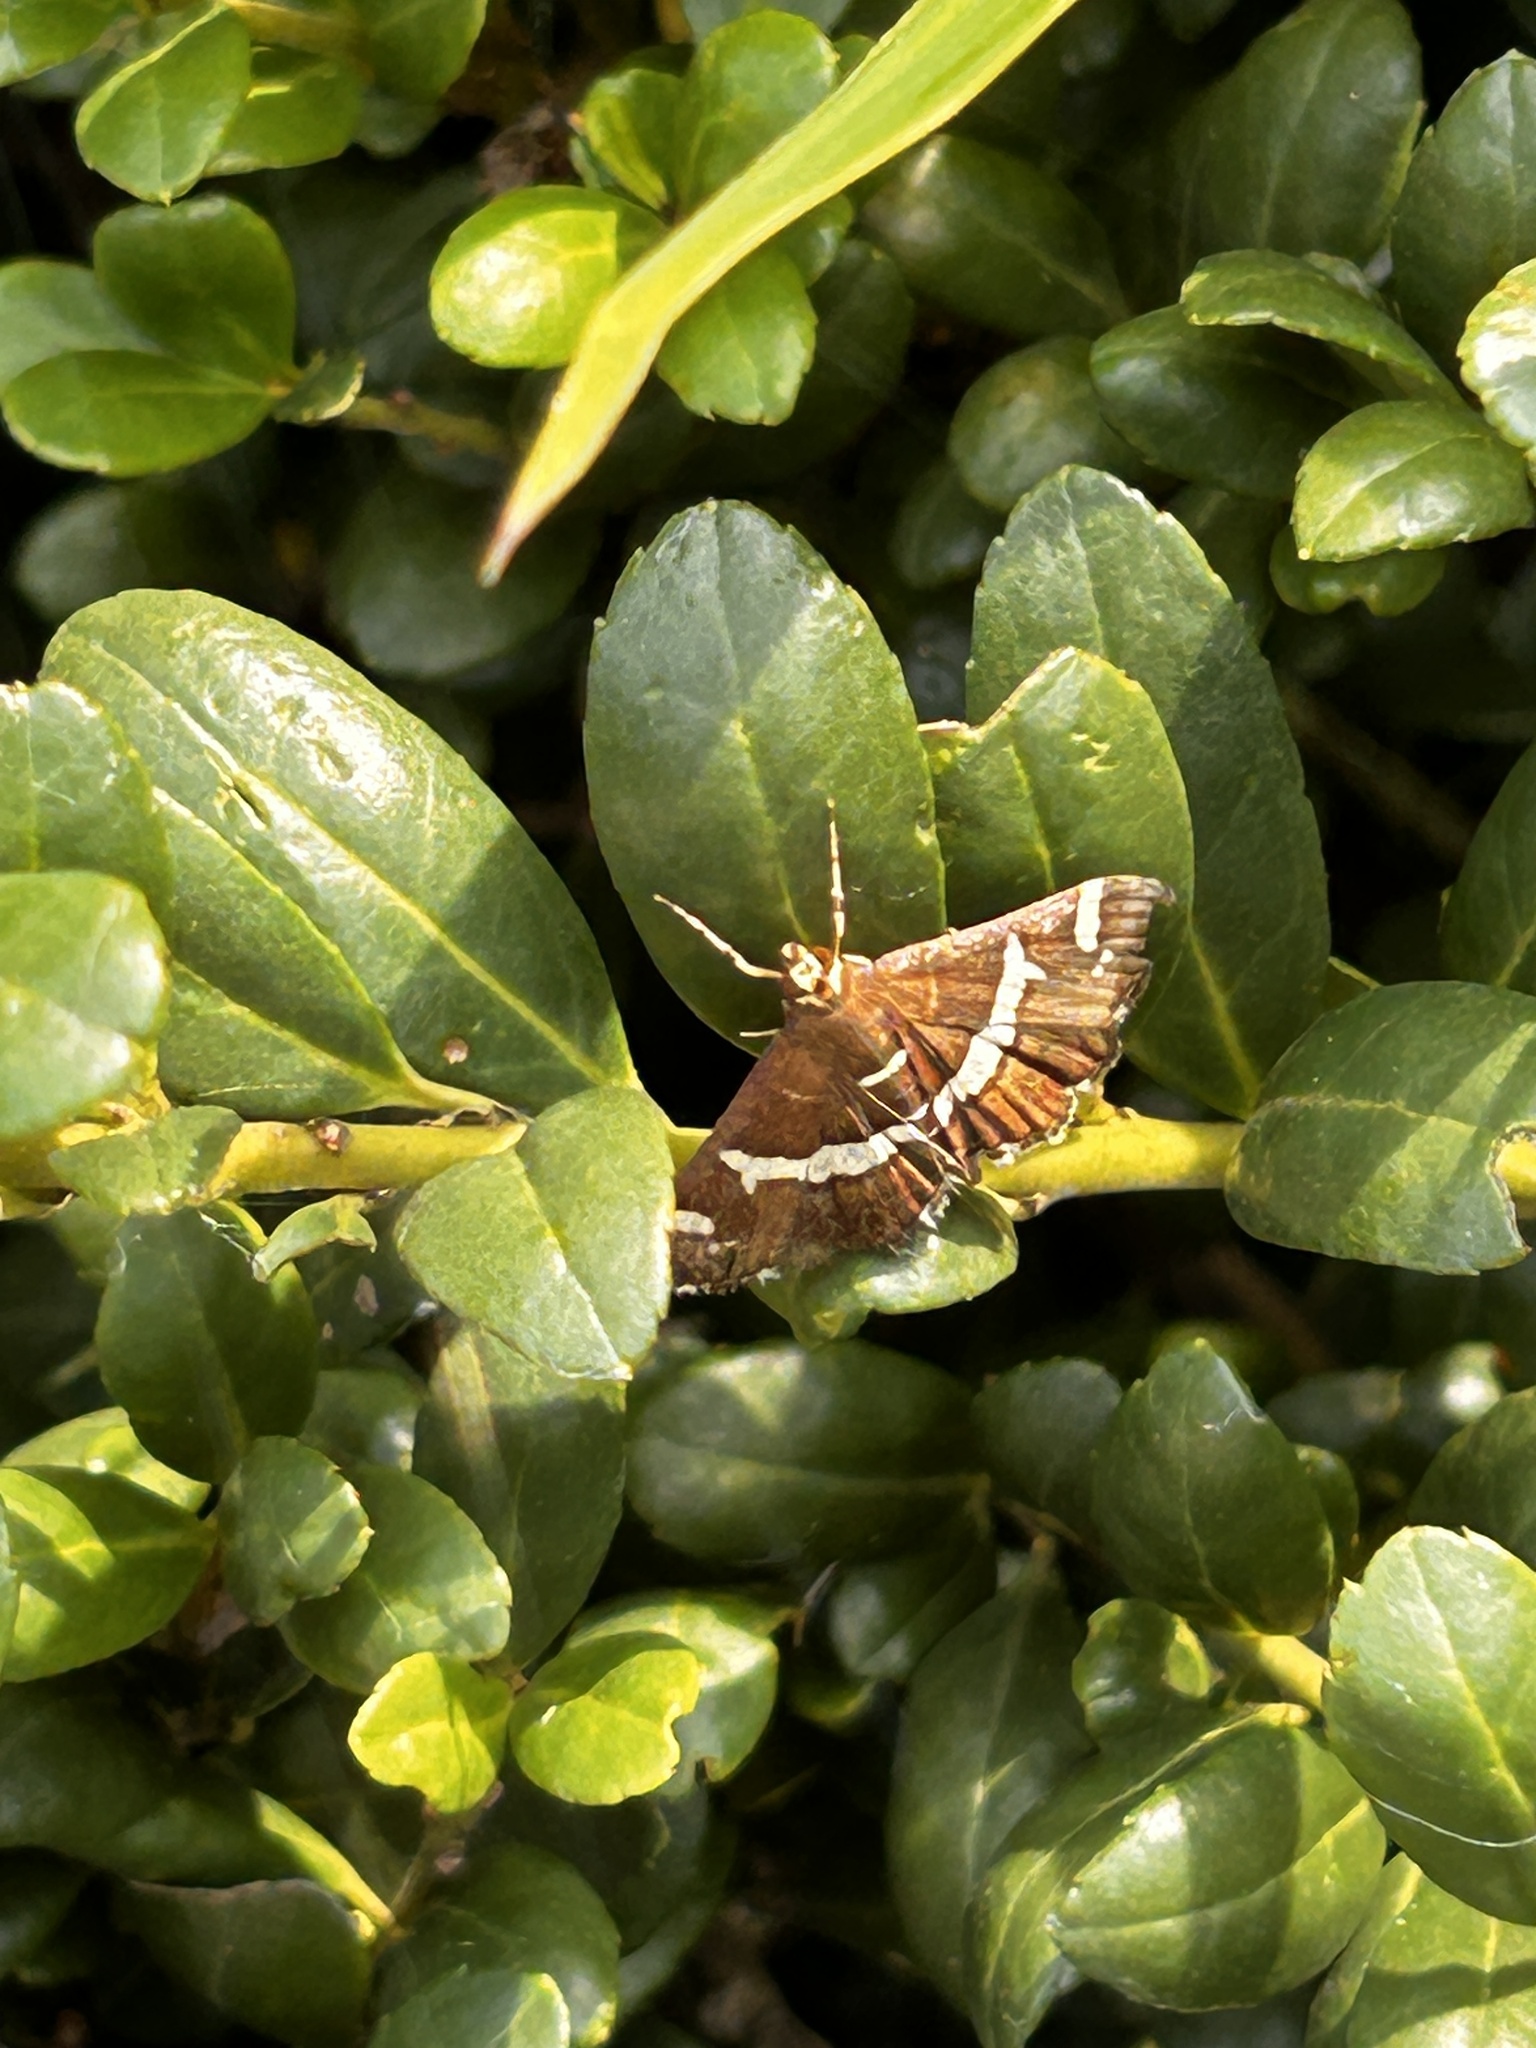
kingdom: Animalia
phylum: Arthropoda
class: Insecta
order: Lepidoptera
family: Crambidae
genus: Spoladea
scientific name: Spoladea recurvalis
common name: Beet webworm moth
